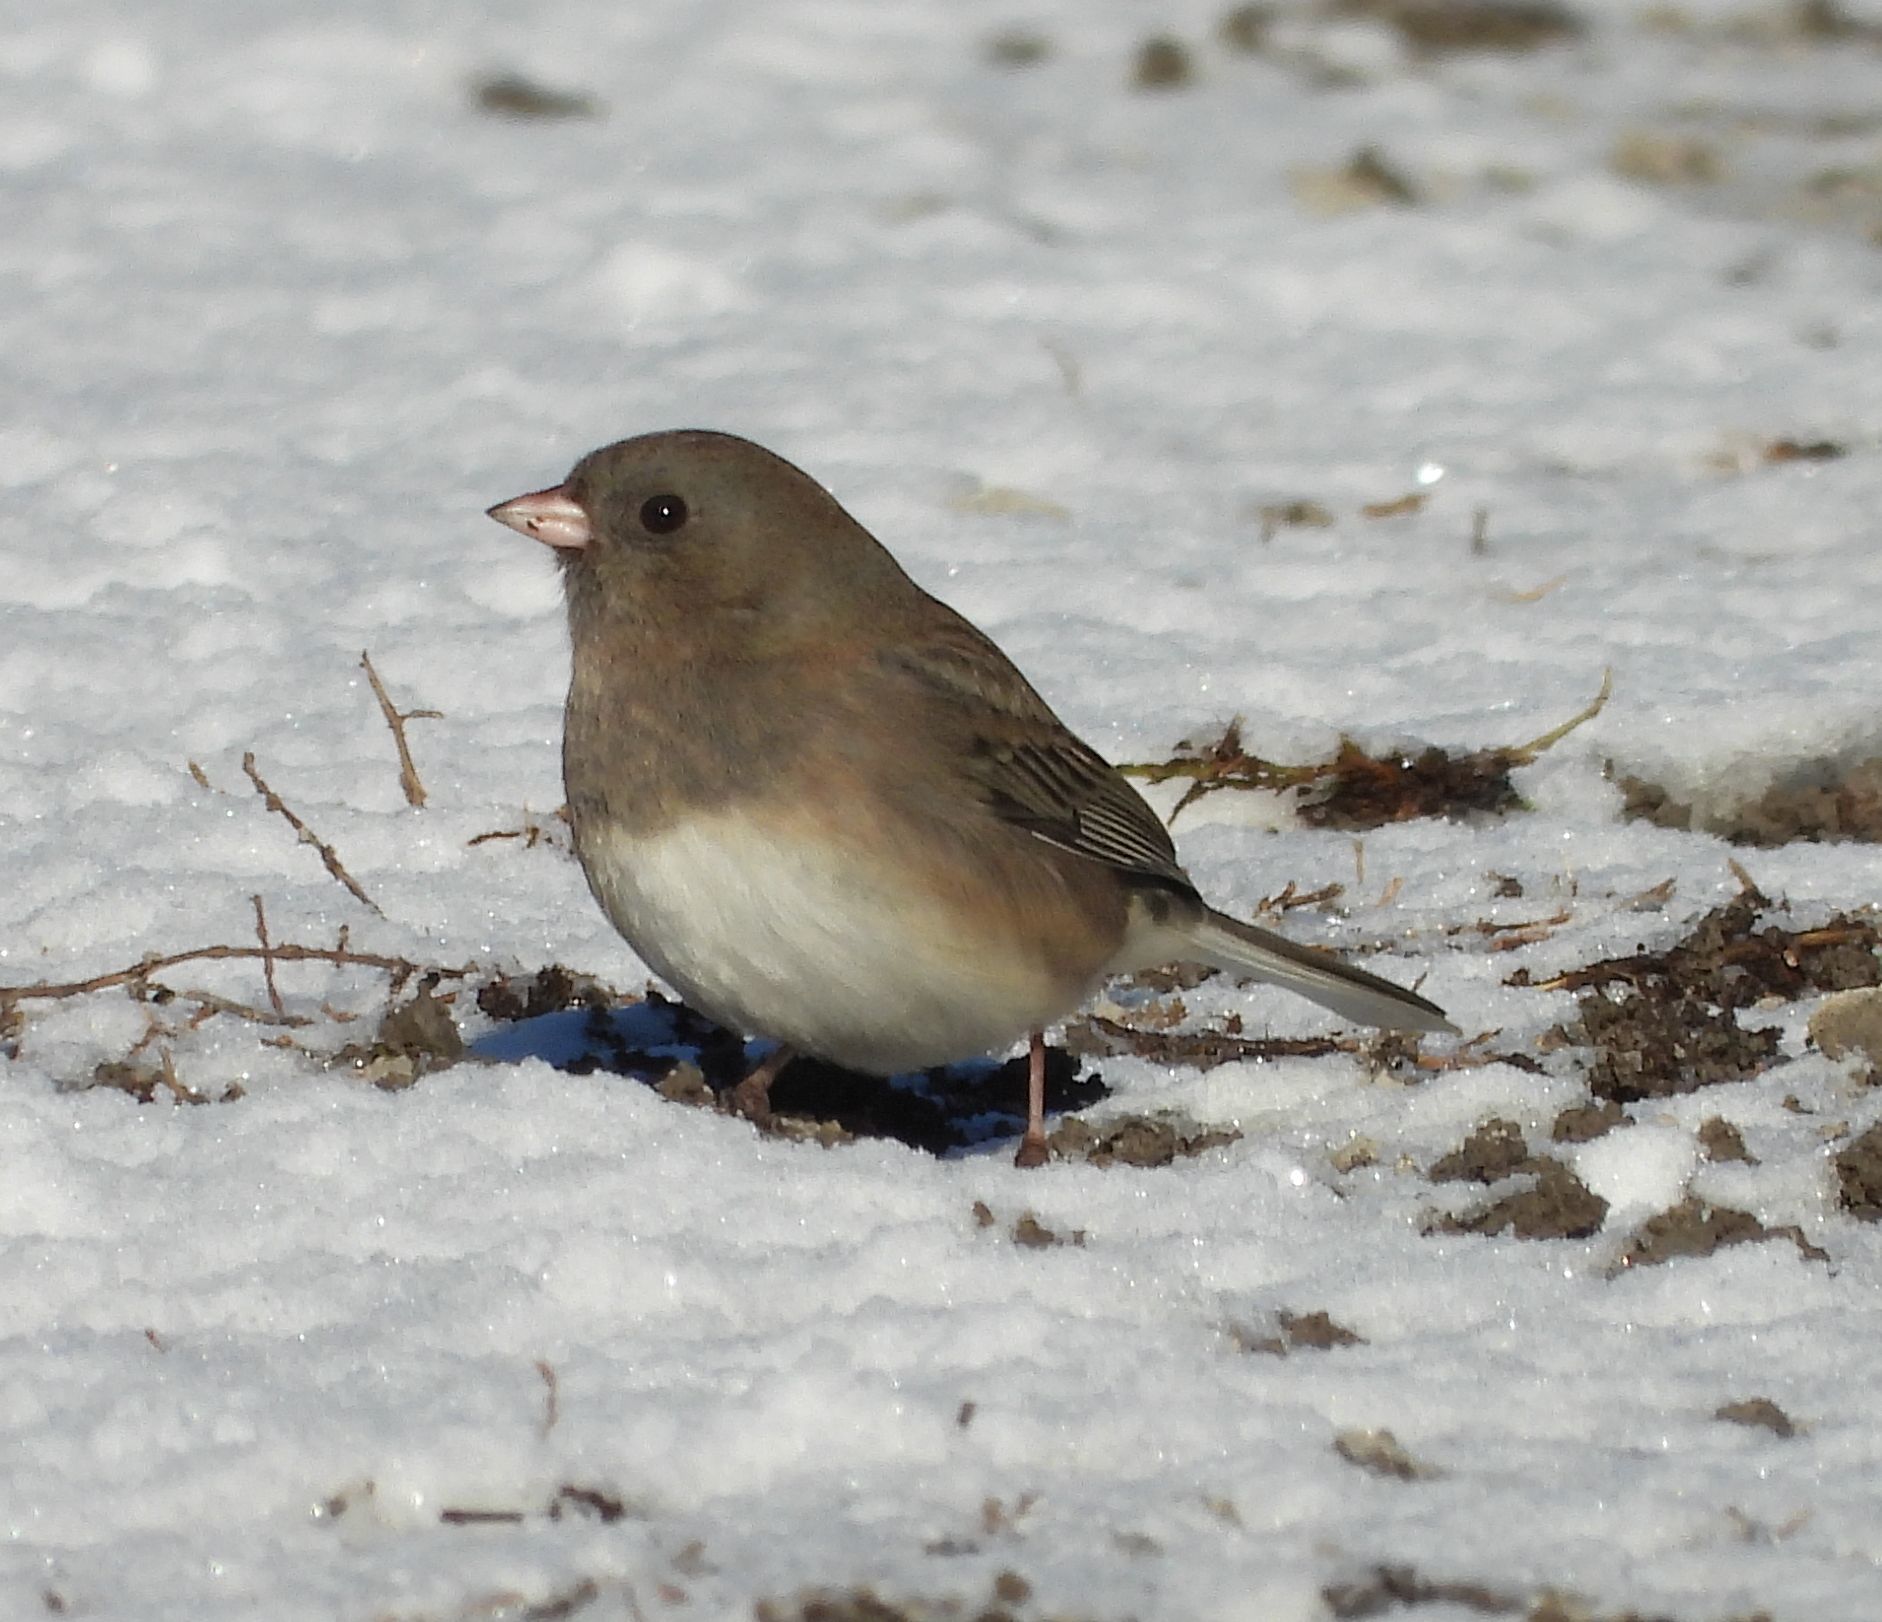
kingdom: Animalia
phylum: Chordata
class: Aves
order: Passeriformes
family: Passerellidae
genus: Junco
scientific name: Junco hyemalis
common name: Dark-eyed junco
